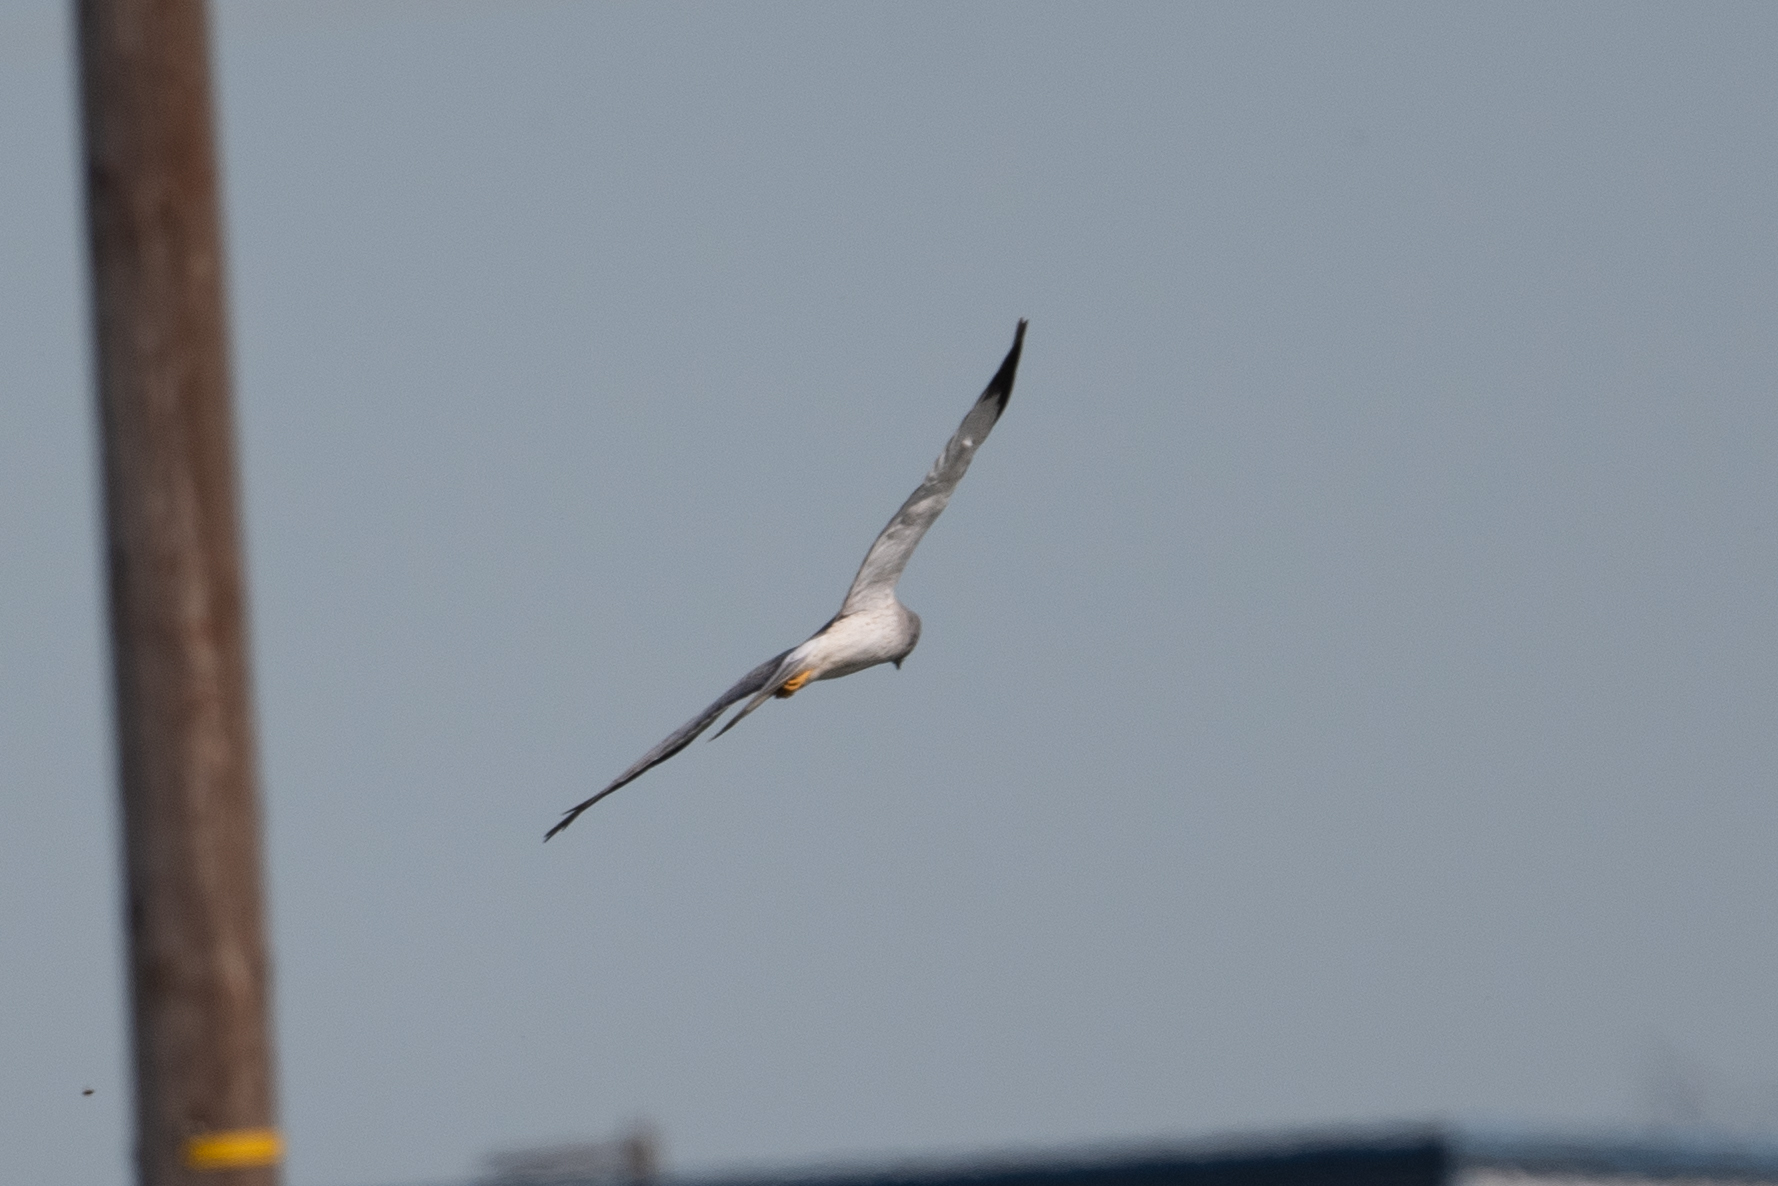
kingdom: Animalia
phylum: Chordata
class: Aves
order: Accipitriformes
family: Accipitridae
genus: Circus
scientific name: Circus cyaneus
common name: Hen harrier
